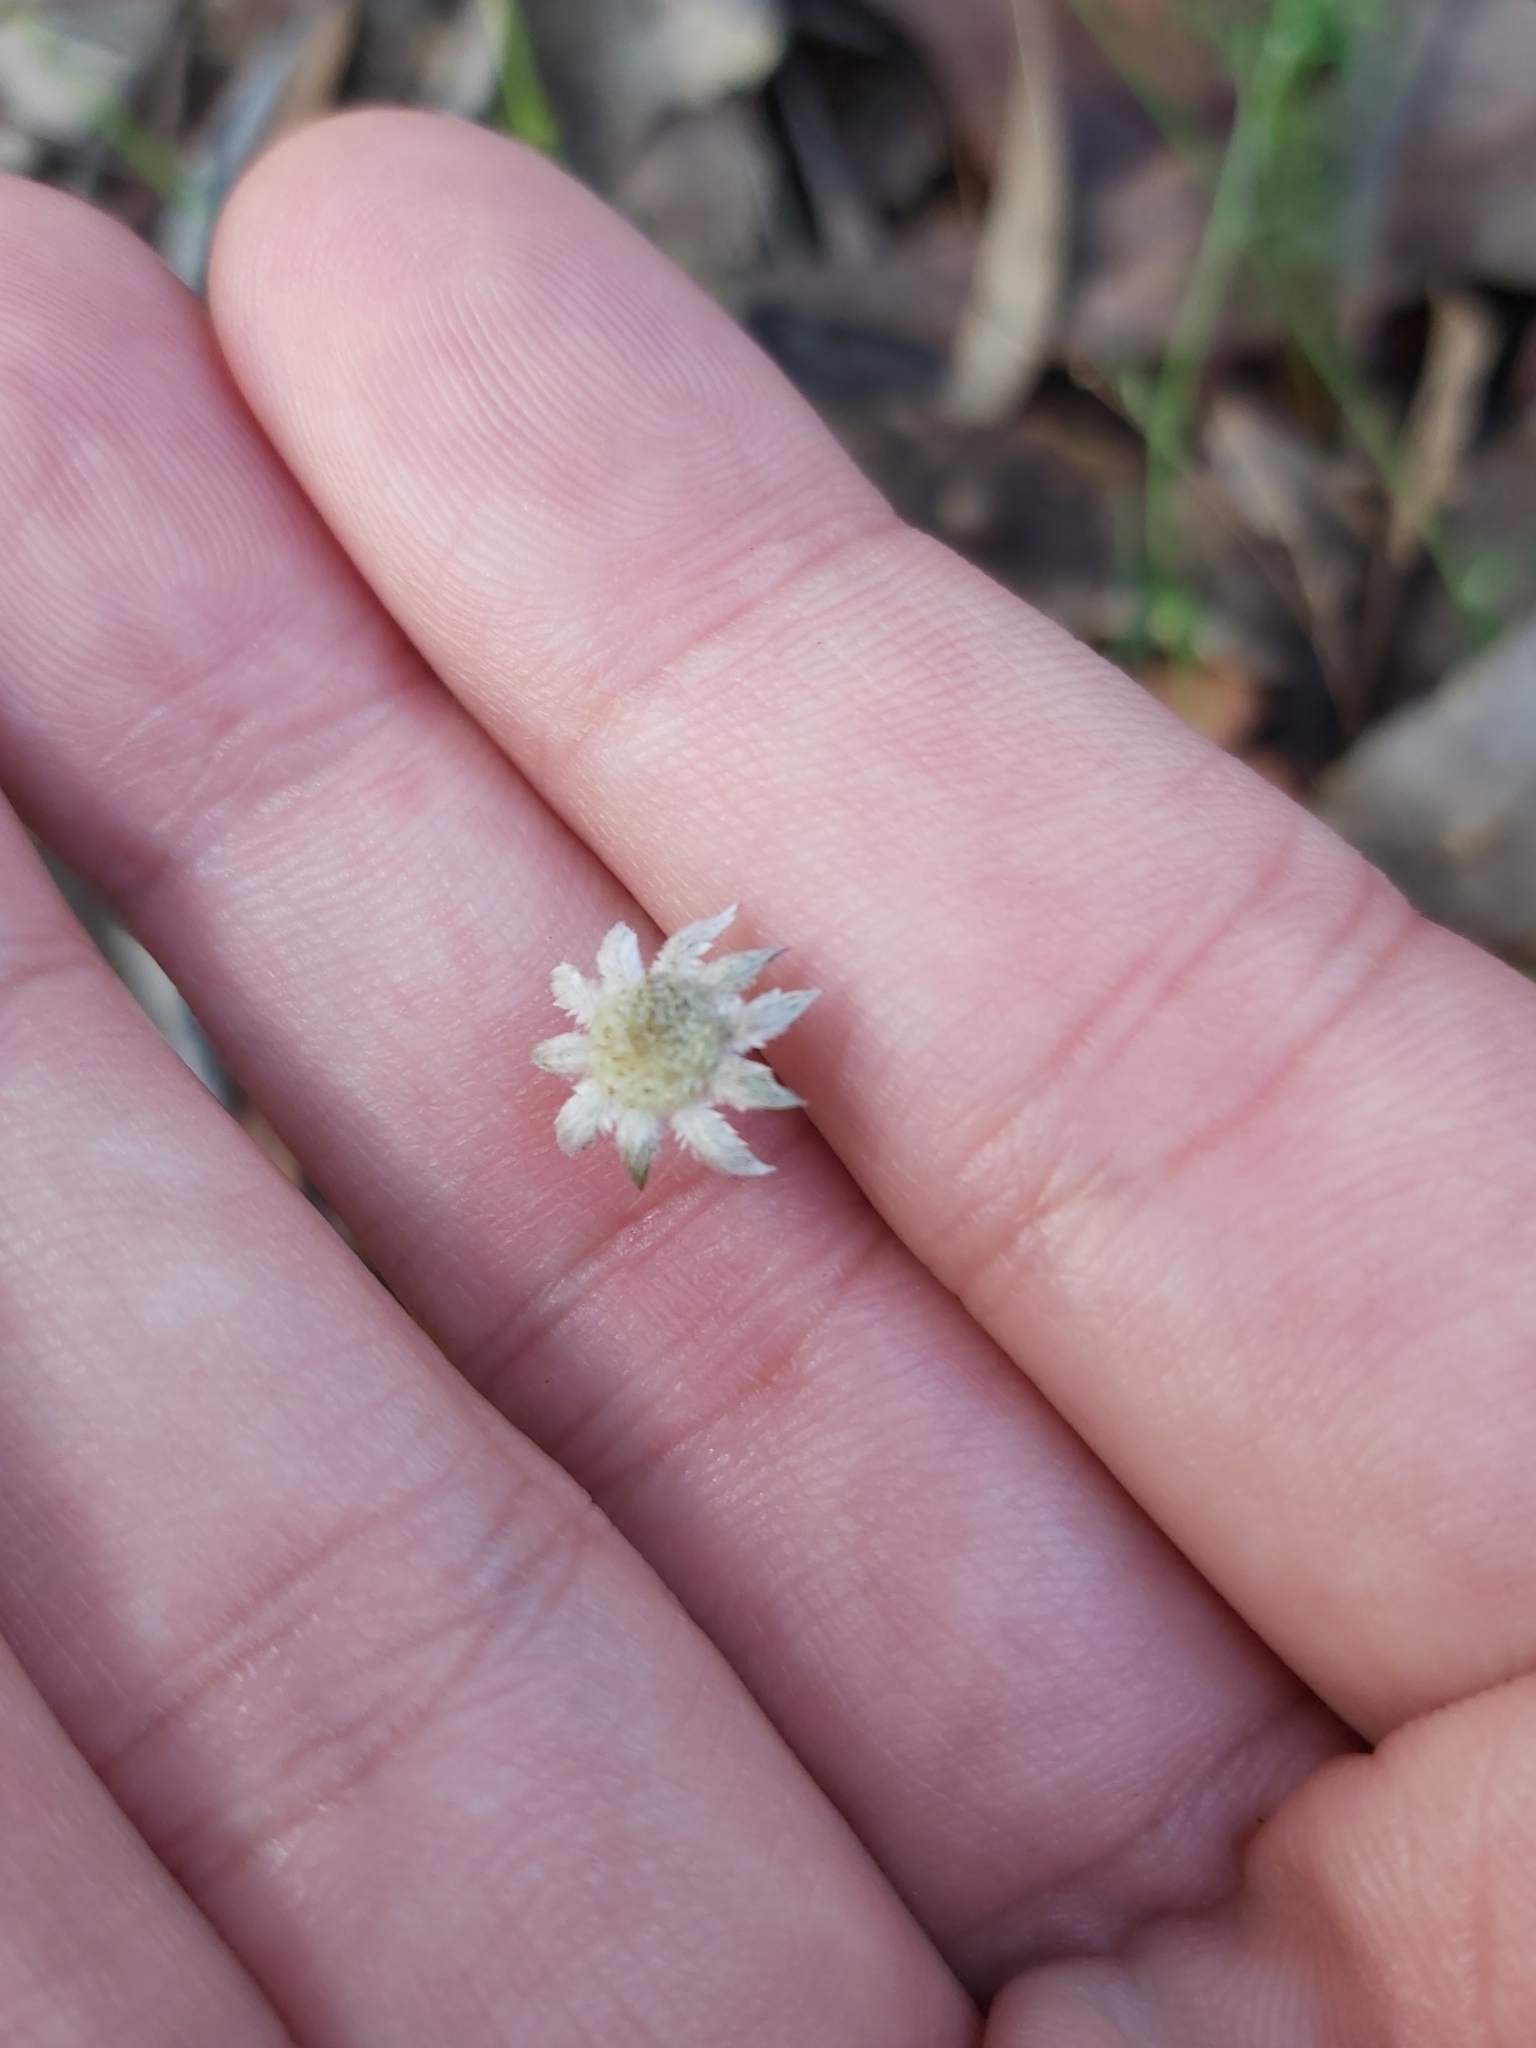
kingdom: Plantae
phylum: Tracheophyta
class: Magnoliopsida
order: Apiales
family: Apiaceae
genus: Actinotus
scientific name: Actinotus minor
